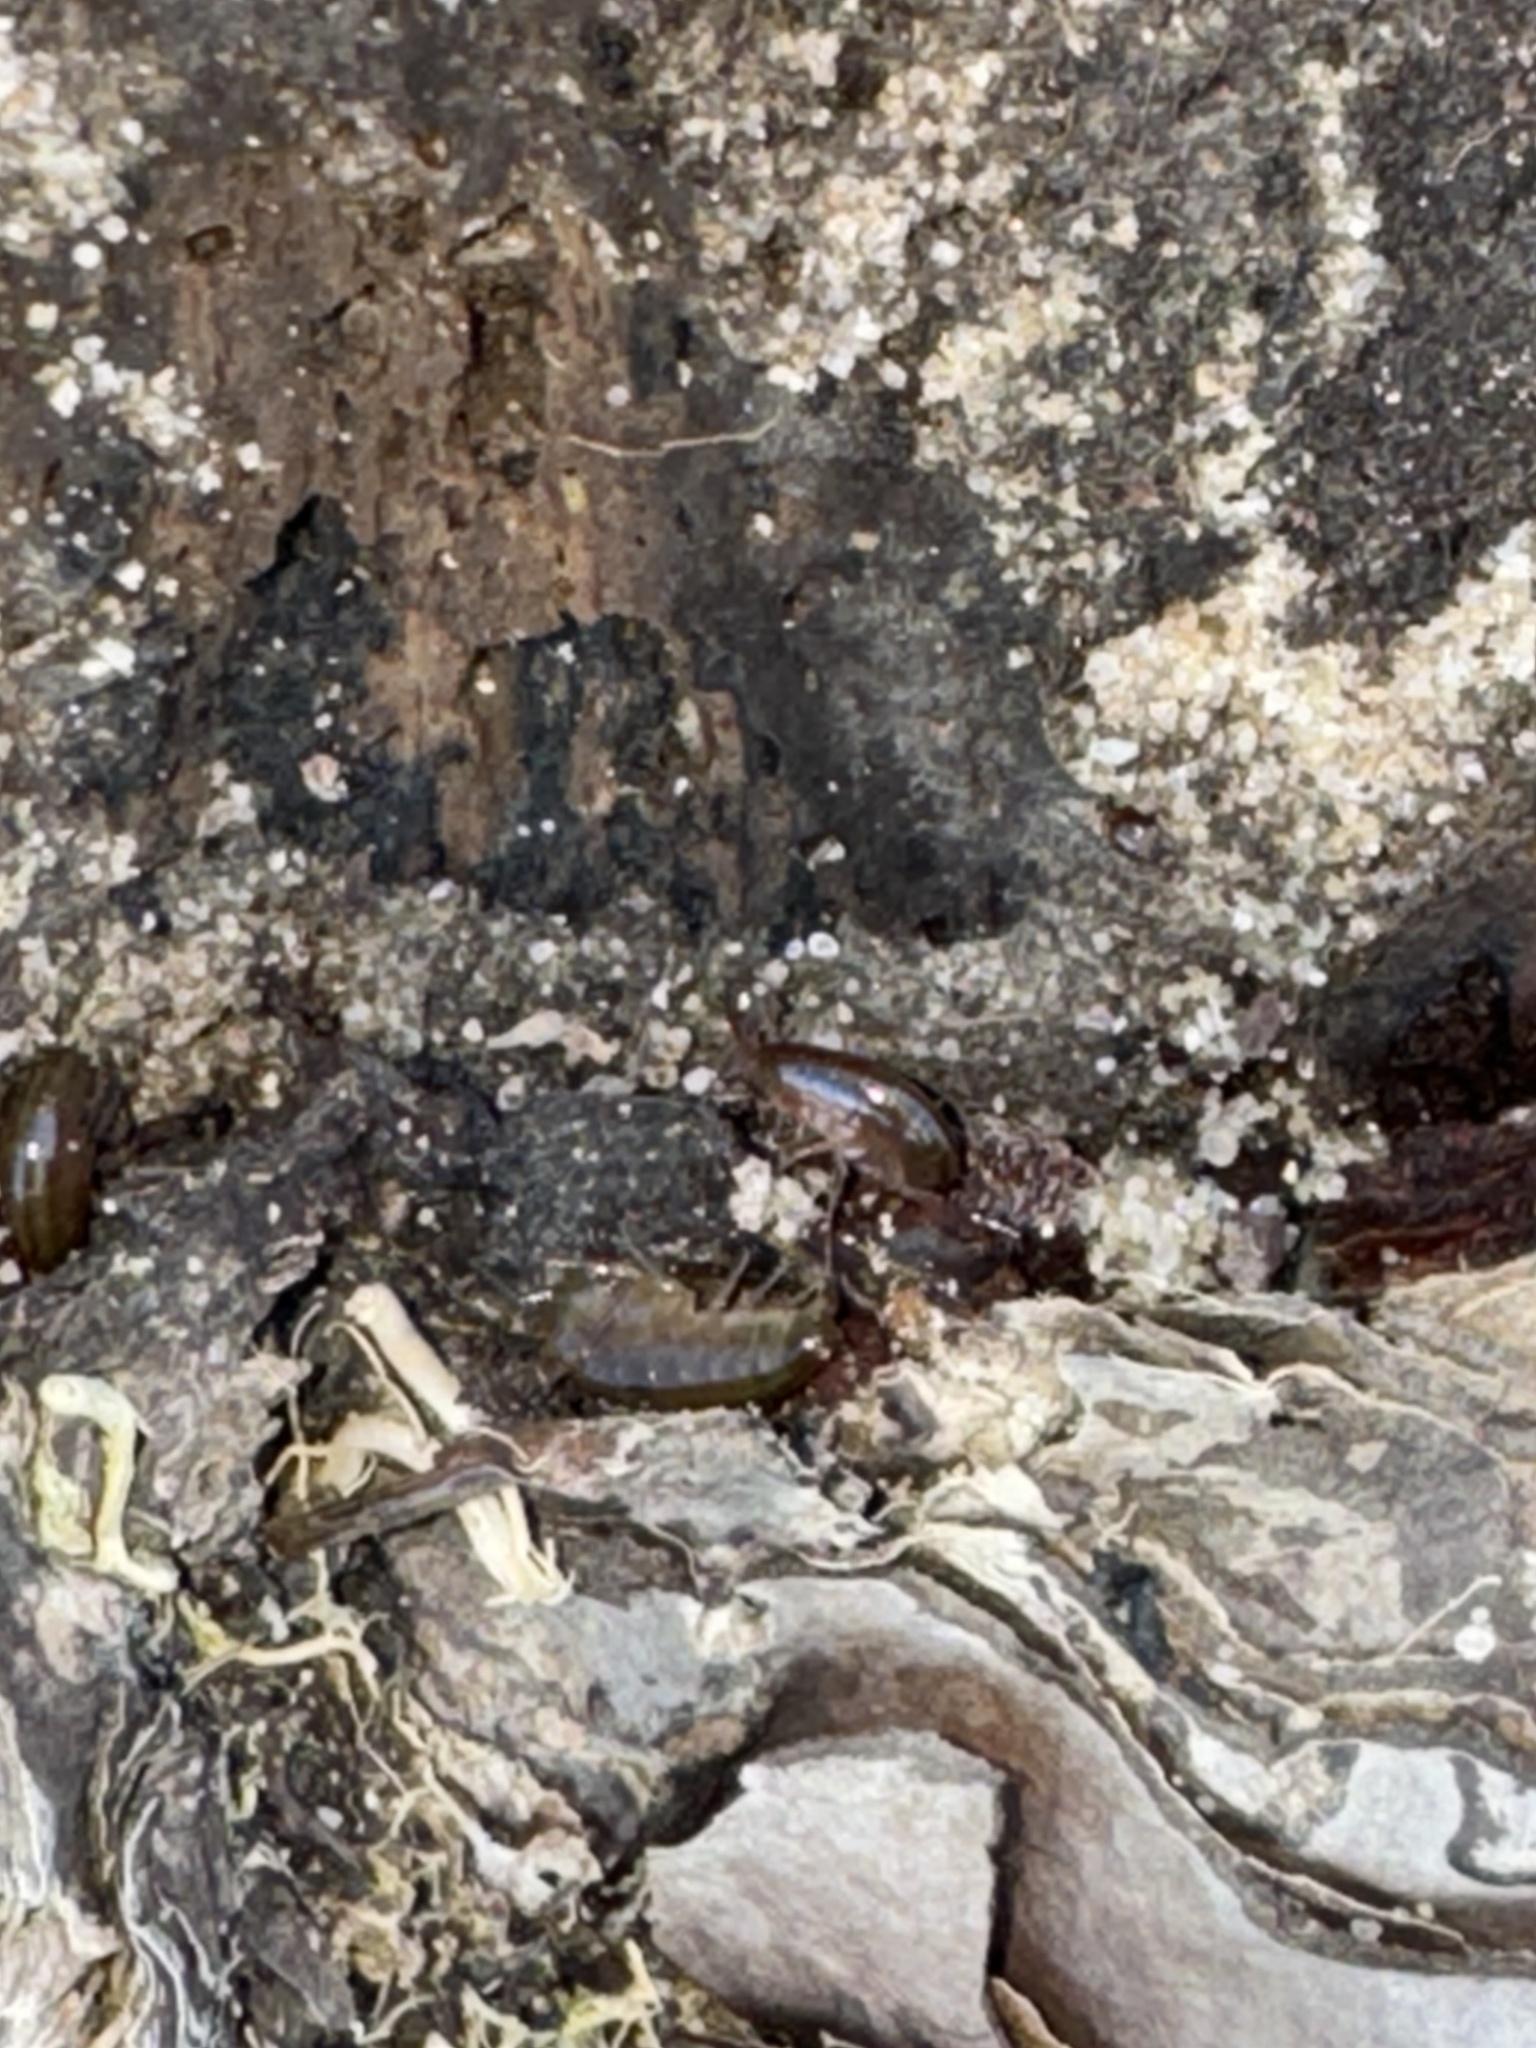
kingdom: Animalia
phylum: Arthropoda
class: Malacostraca
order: Amphipoda
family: Talitridae
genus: Speziorchestia
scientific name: Speziorchestia grillus
